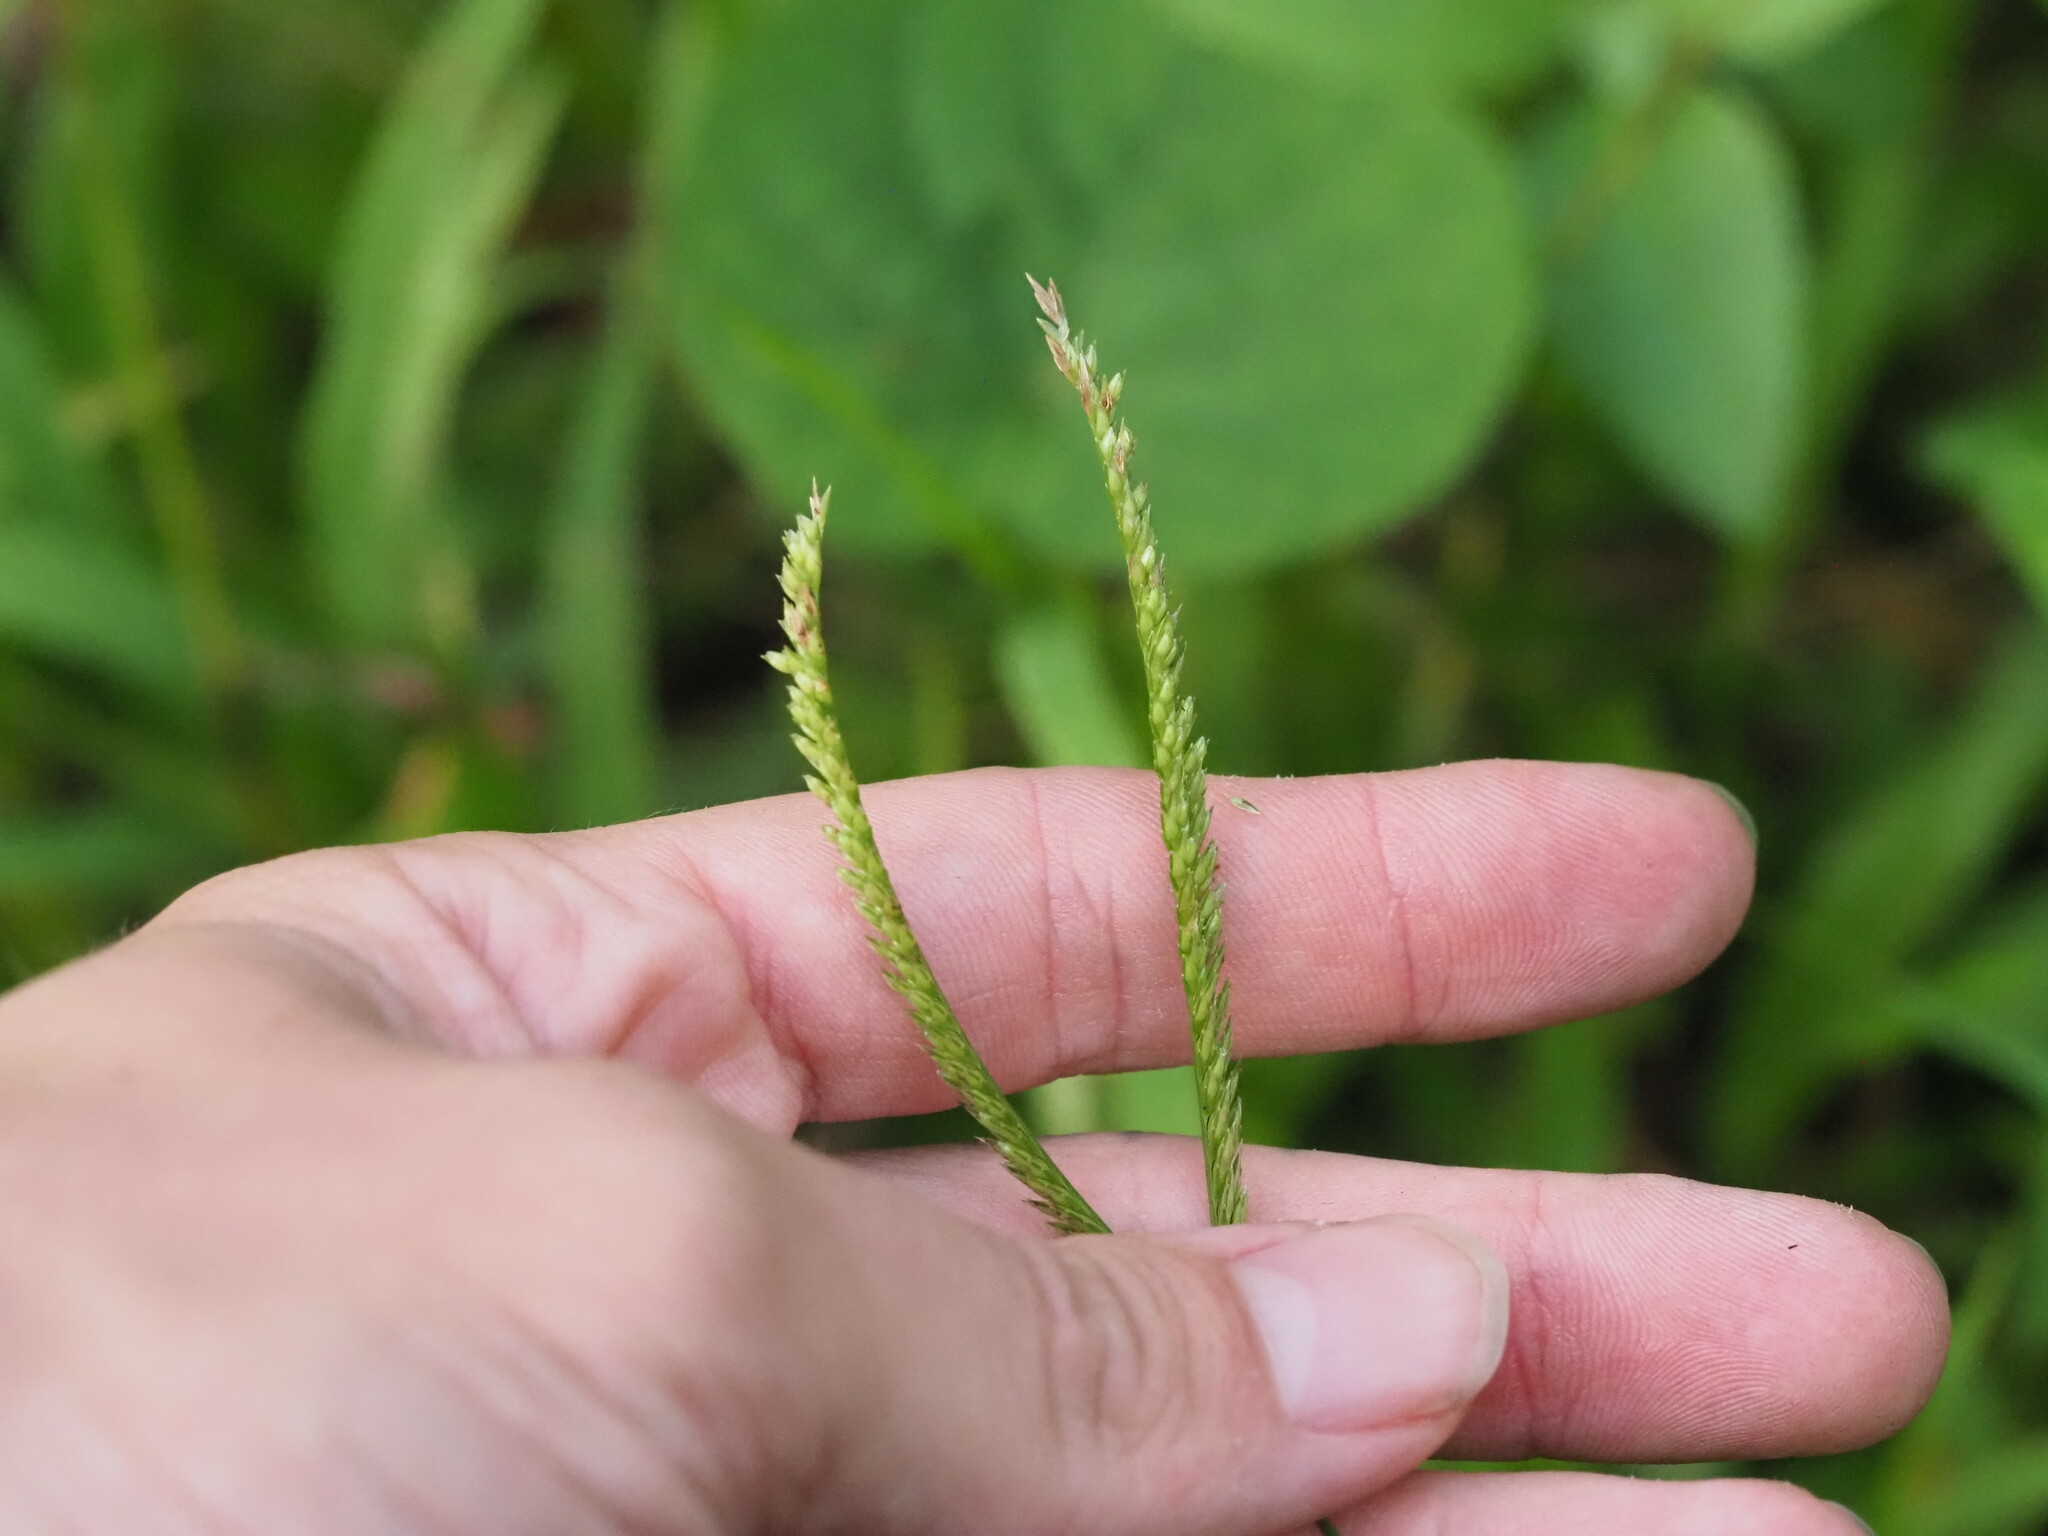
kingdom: Plantae
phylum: Tracheophyta
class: Liliopsida
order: Poales
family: Poaceae
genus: Eleusine
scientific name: Eleusine indica
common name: Yard-grass
